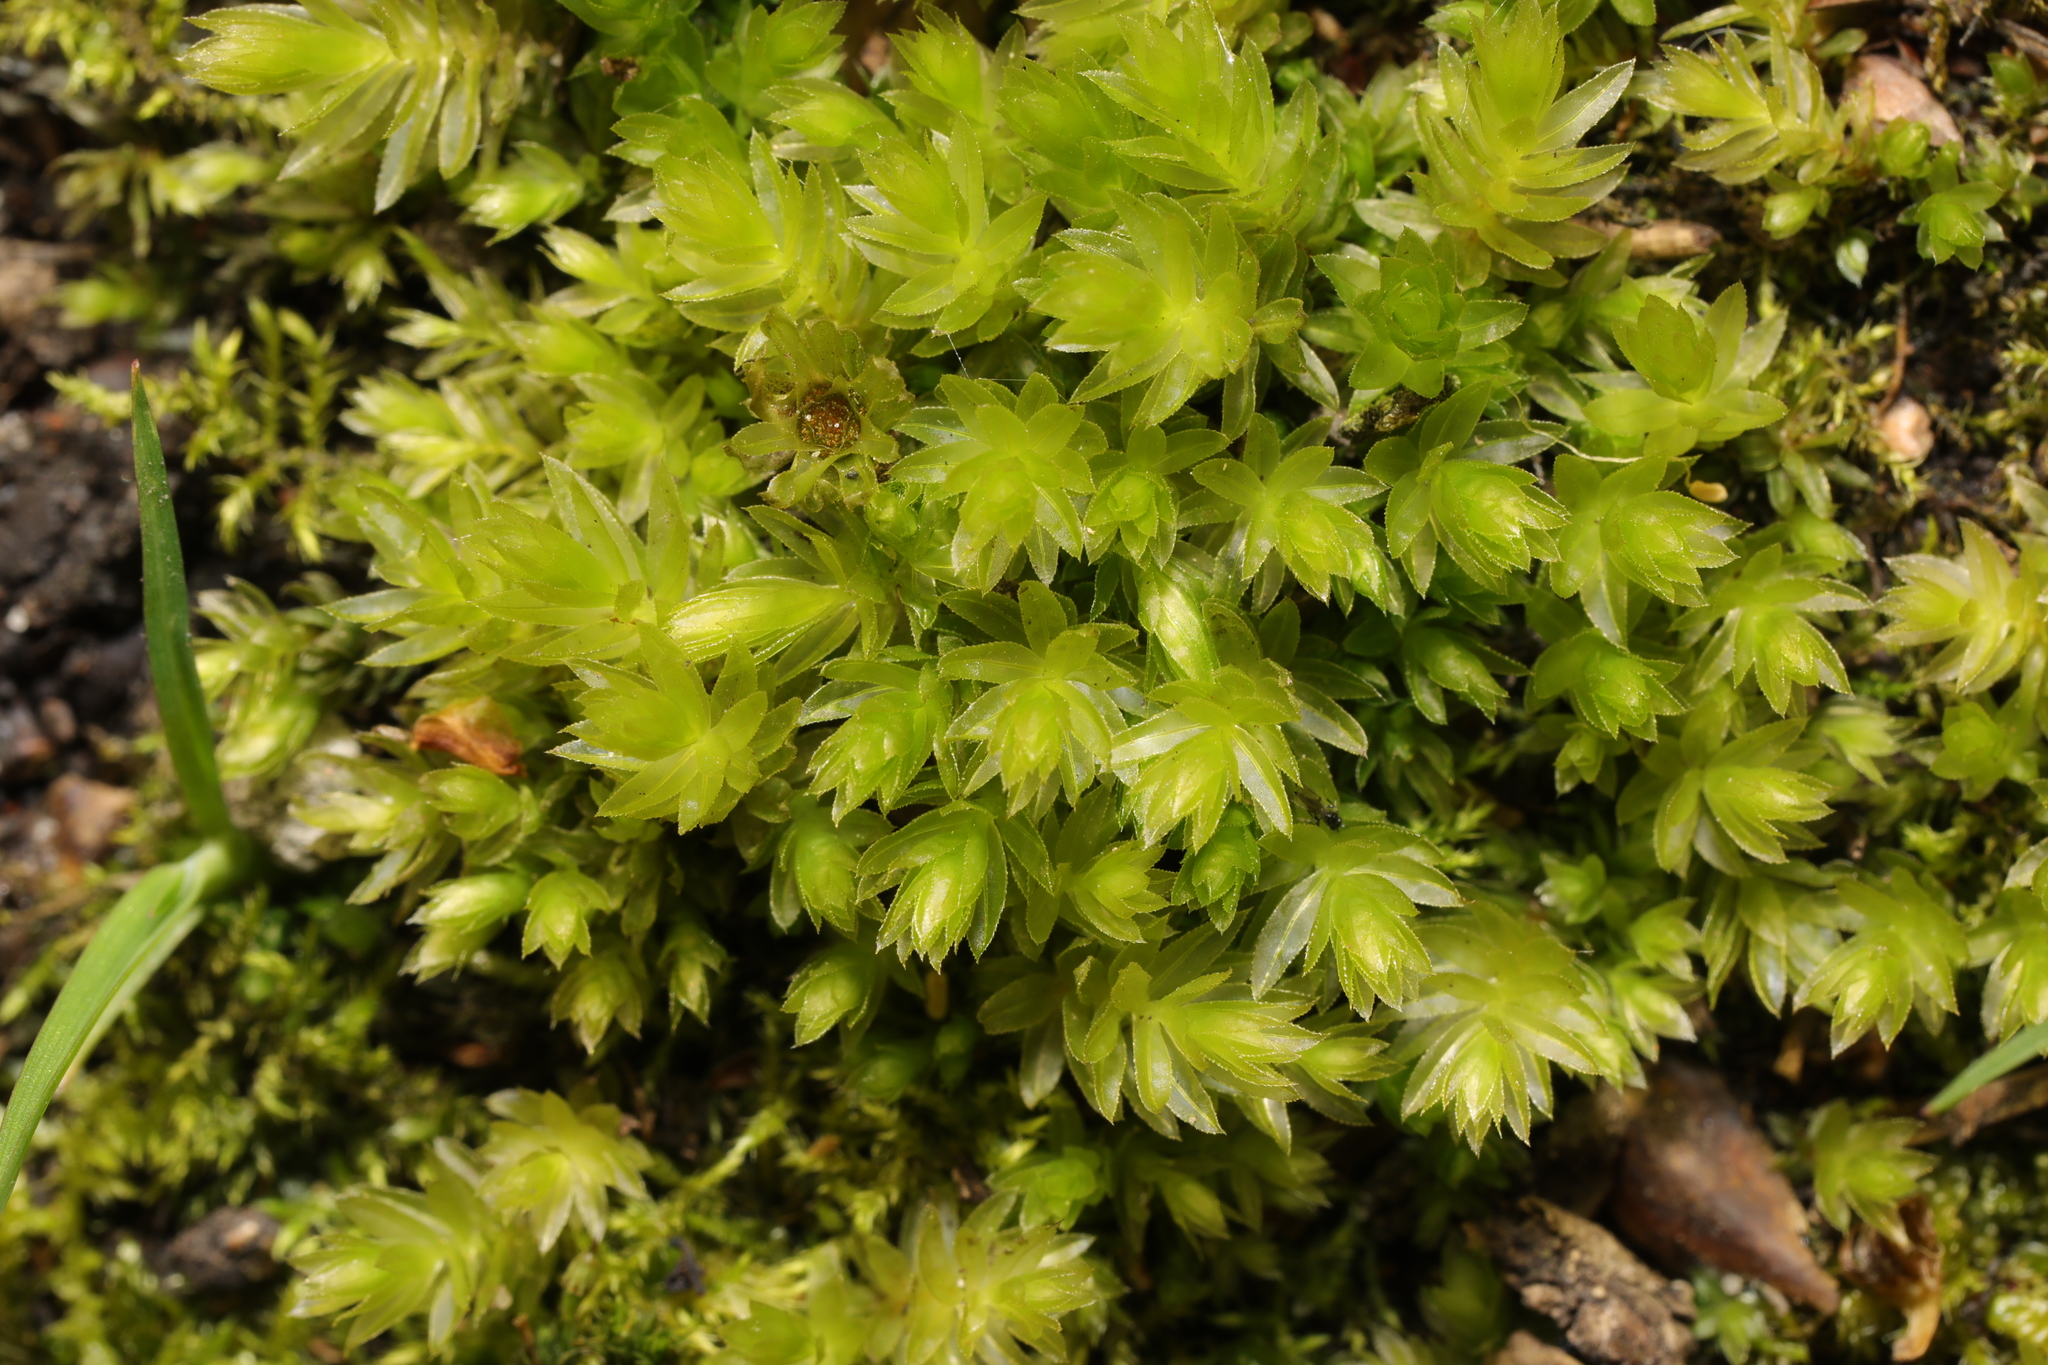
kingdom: Plantae
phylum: Bryophyta
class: Bryopsida
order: Bryales
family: Mniaceae
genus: Mnium
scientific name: Mnium hornum
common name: Swan's-neck leafy moss
